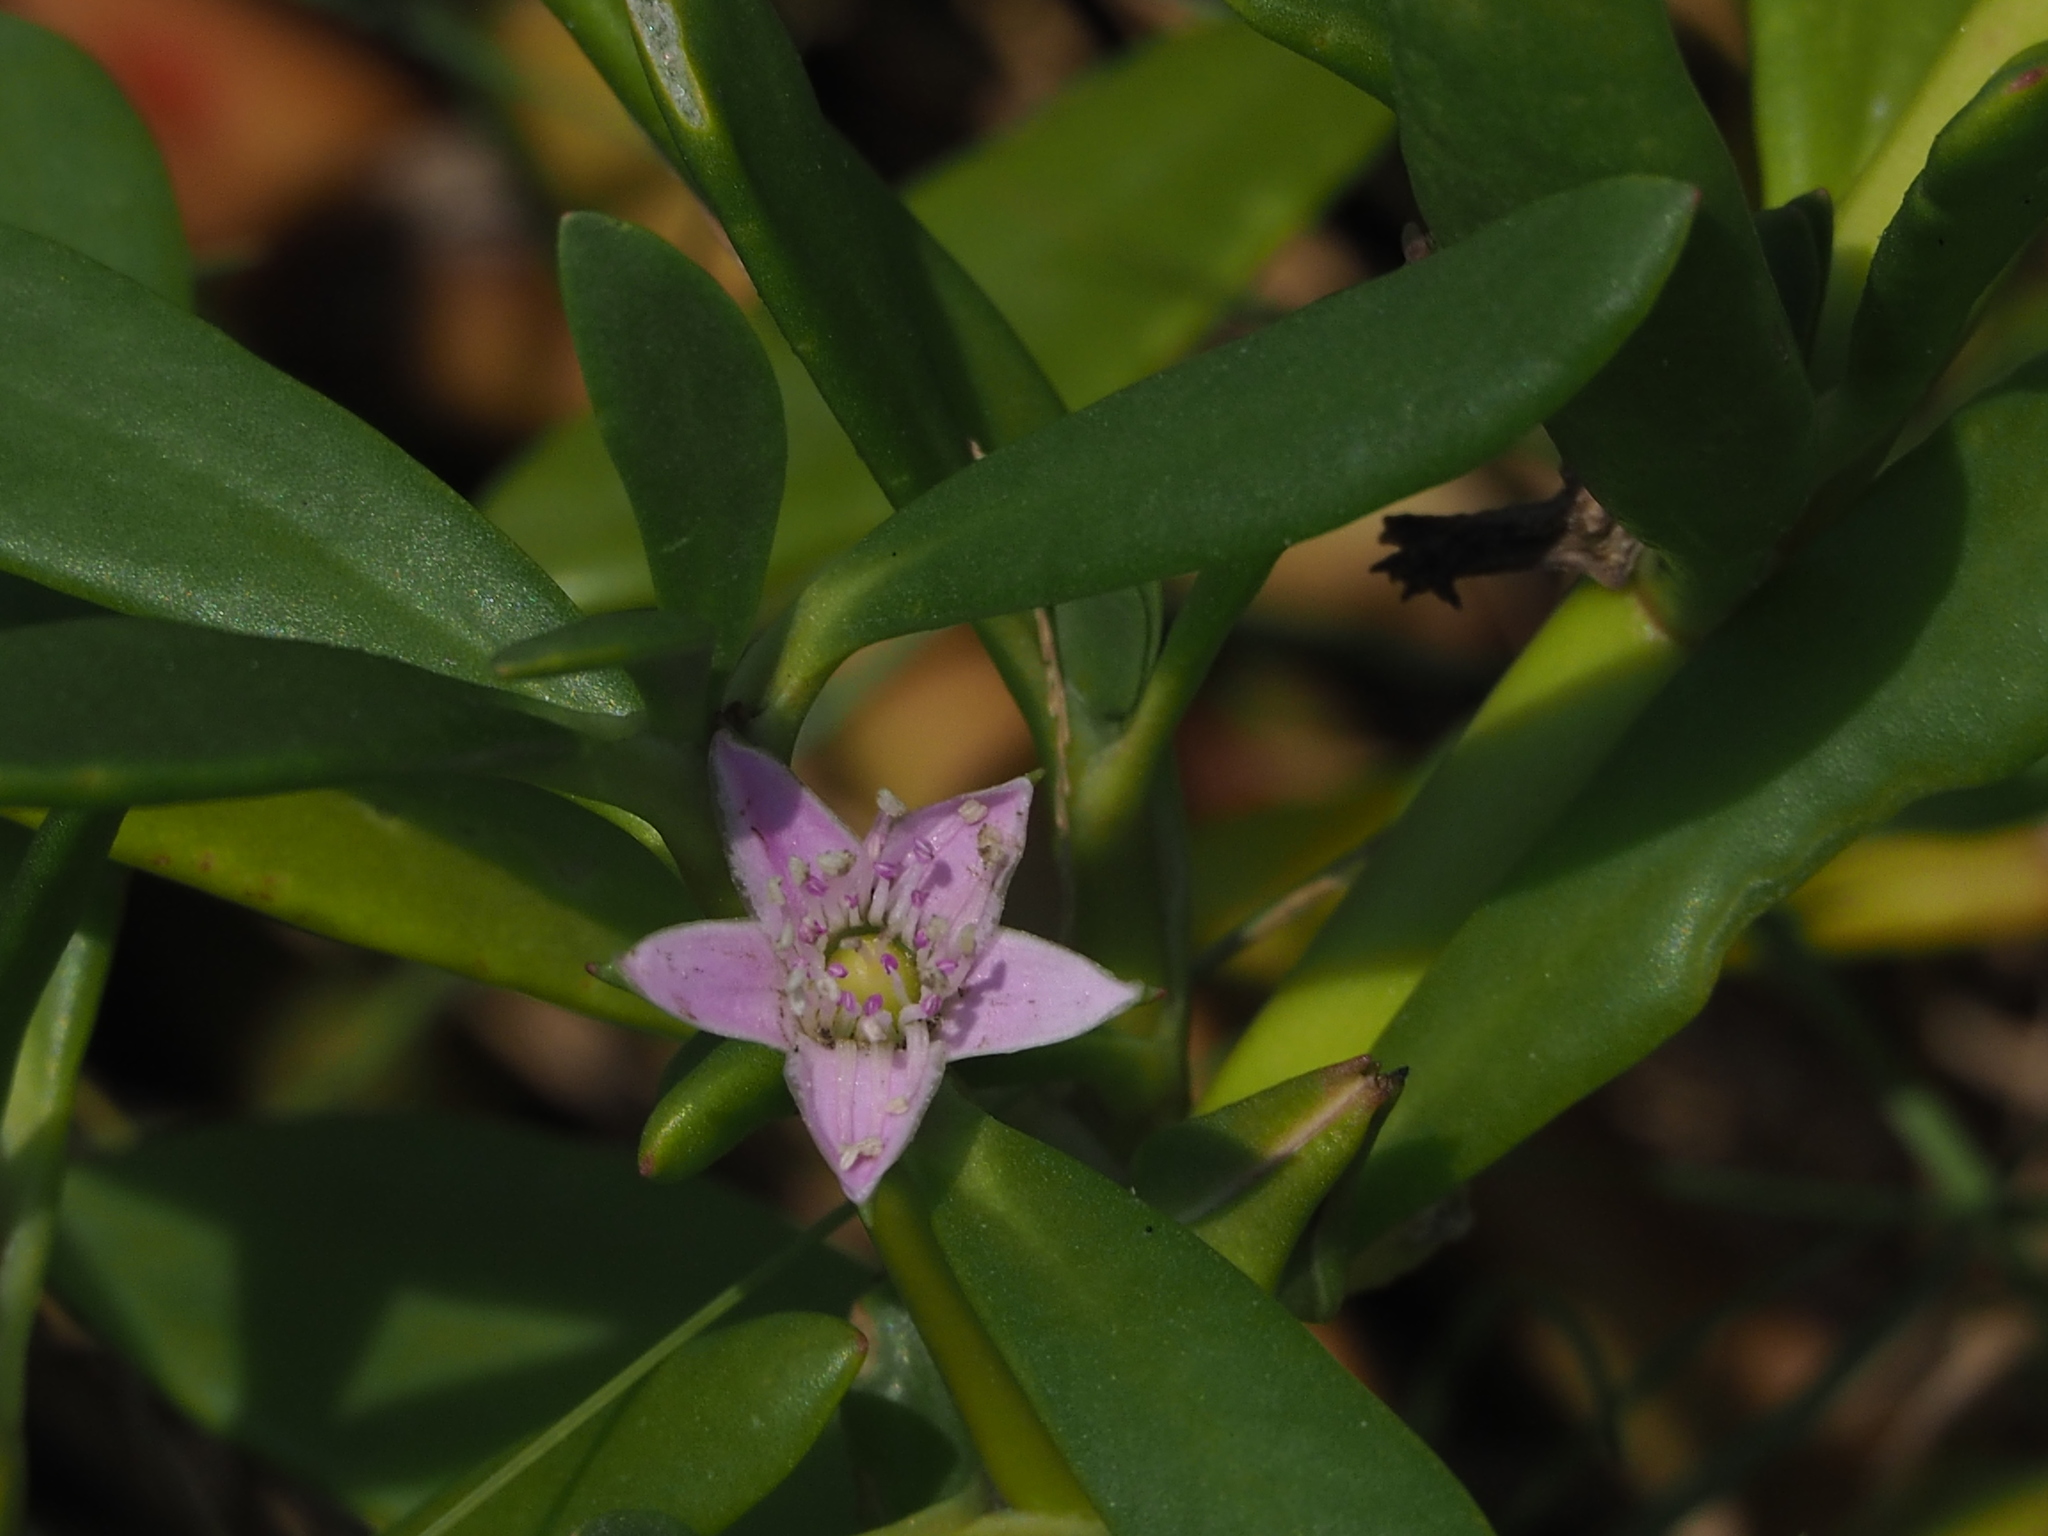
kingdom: Plantae
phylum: Tracheophyta
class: Magnoliopsida
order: Caryophyllales
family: Aizoaceae
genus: Sesuvium
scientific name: Sesuvium portulacastrum
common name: Sea-purslane
